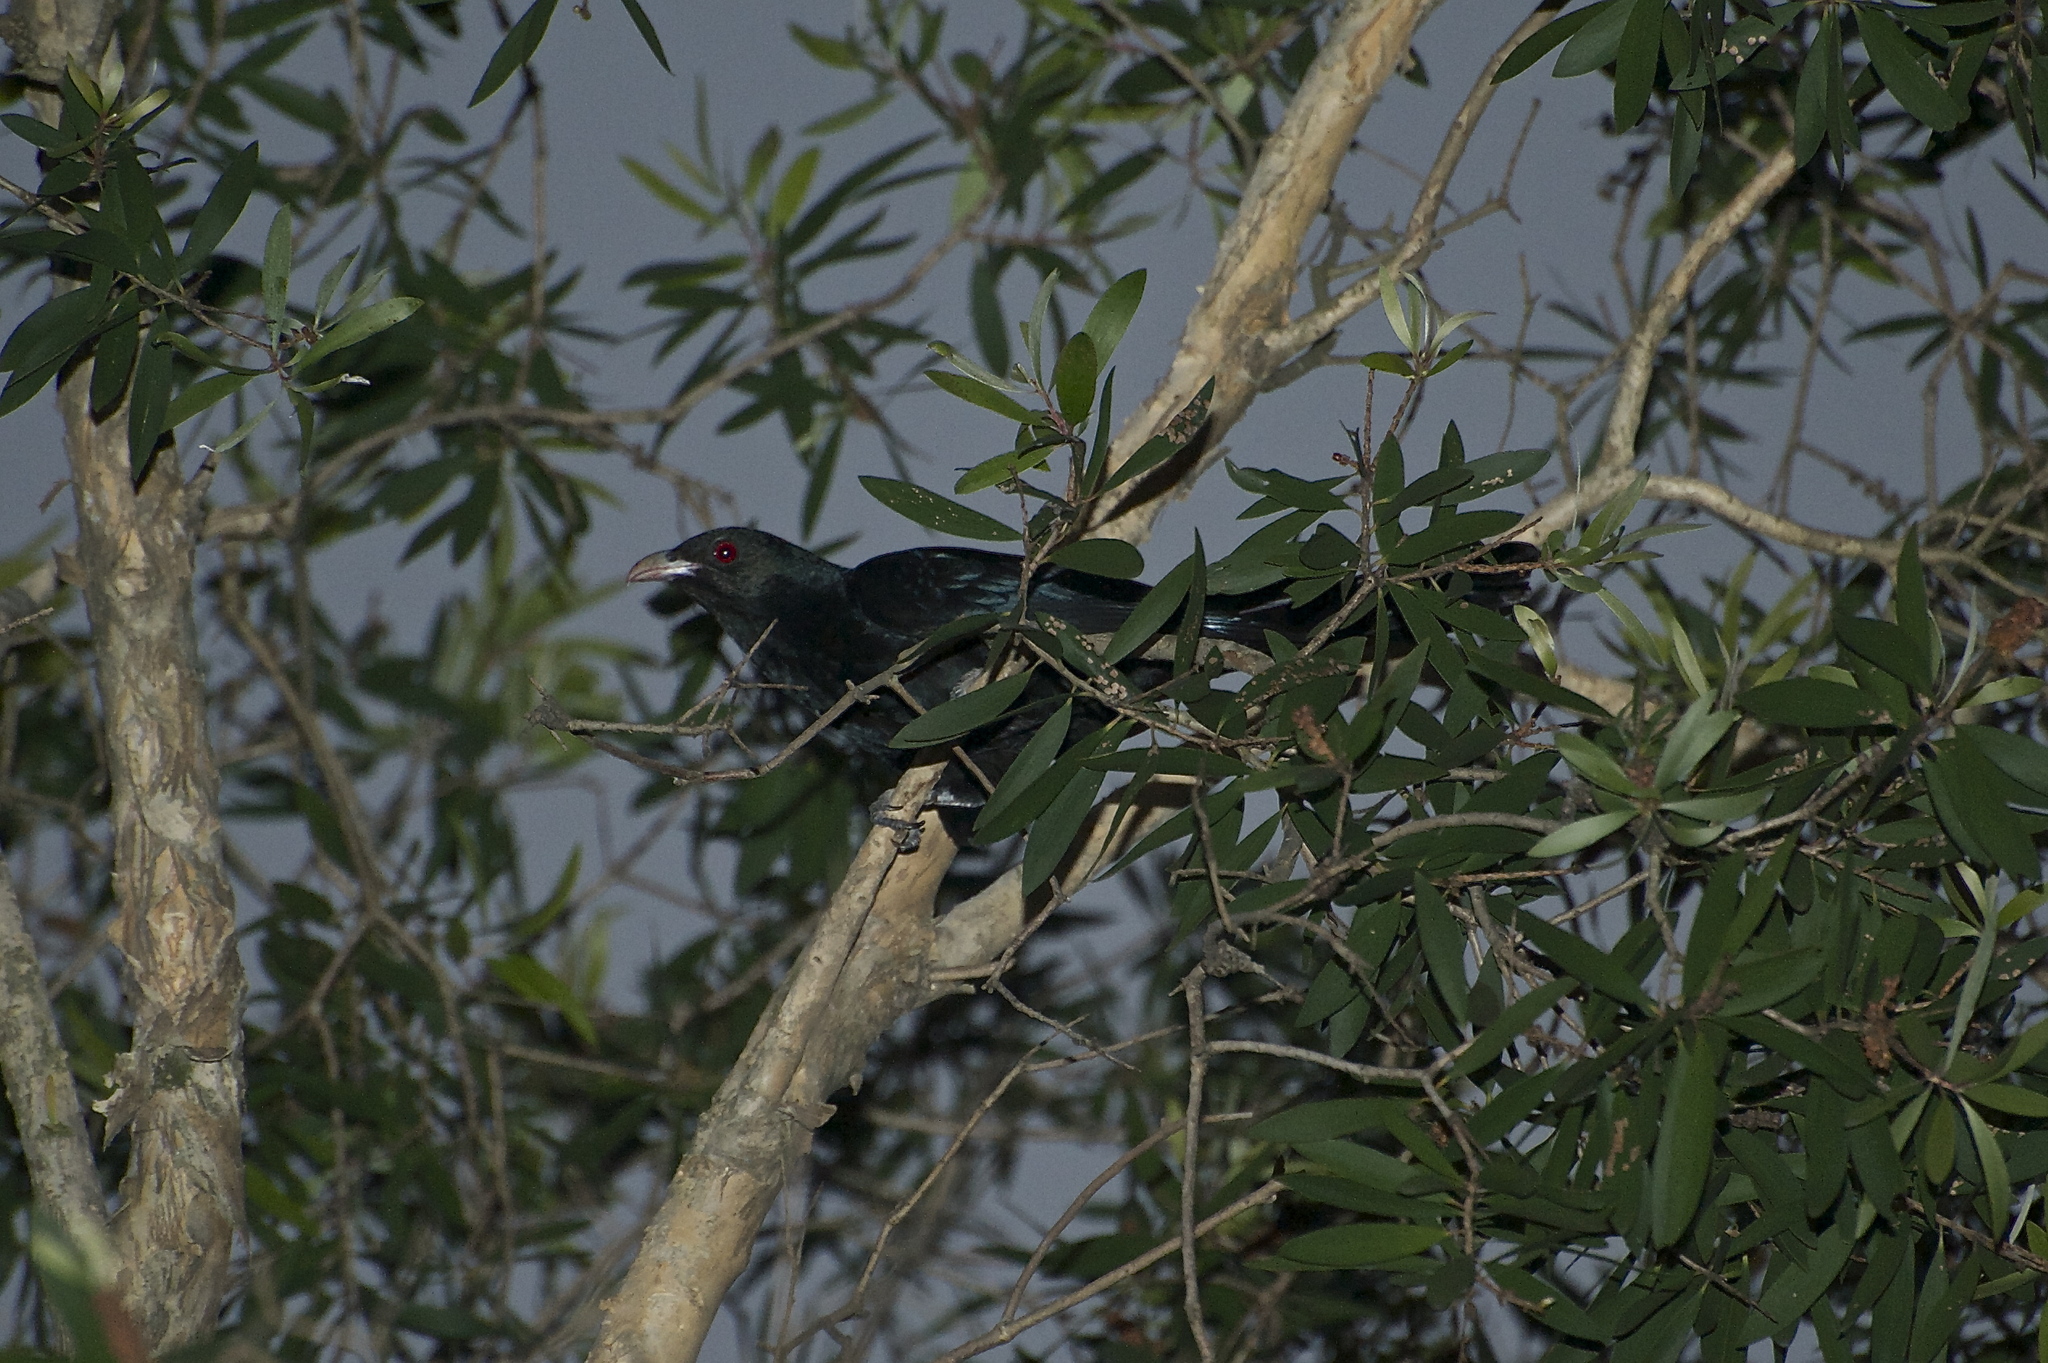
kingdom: Animalia
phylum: Chordata
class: Aves
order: Cuculiformes
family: Cuculidae
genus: Eudynamys
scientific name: Eudynamys scolopaceus
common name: Asian koel
